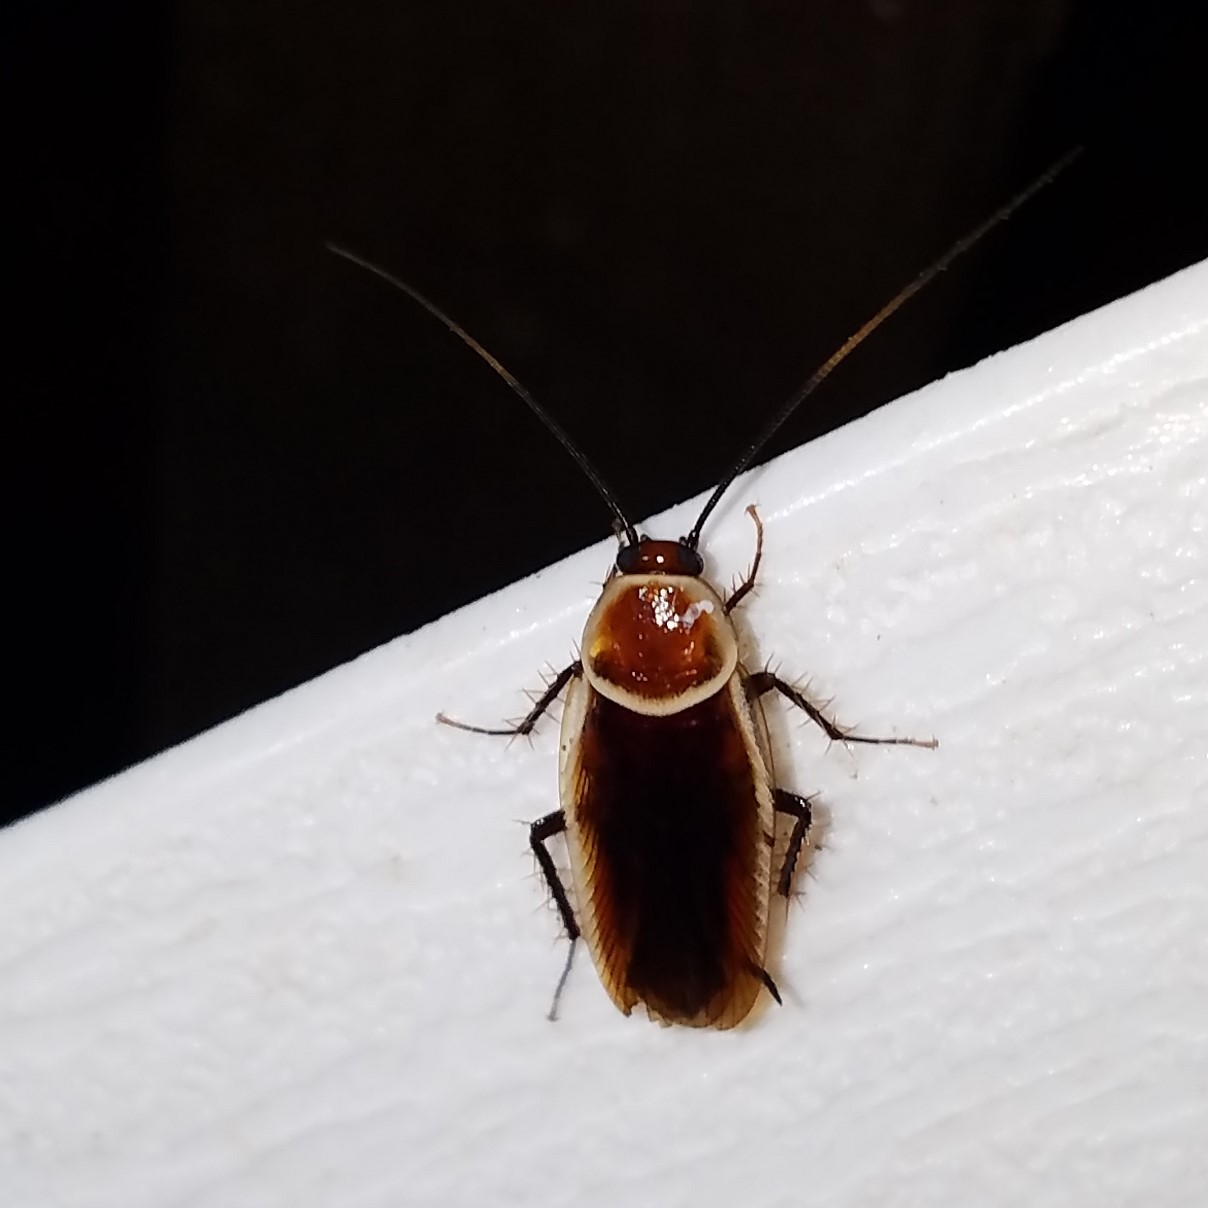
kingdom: Animalia
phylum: Arthropoda
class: Insecta
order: Blattodea
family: Ectobiidae
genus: Pseudomops
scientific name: Pseudomops septentrionalis
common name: Pale-bordered field cockroach
